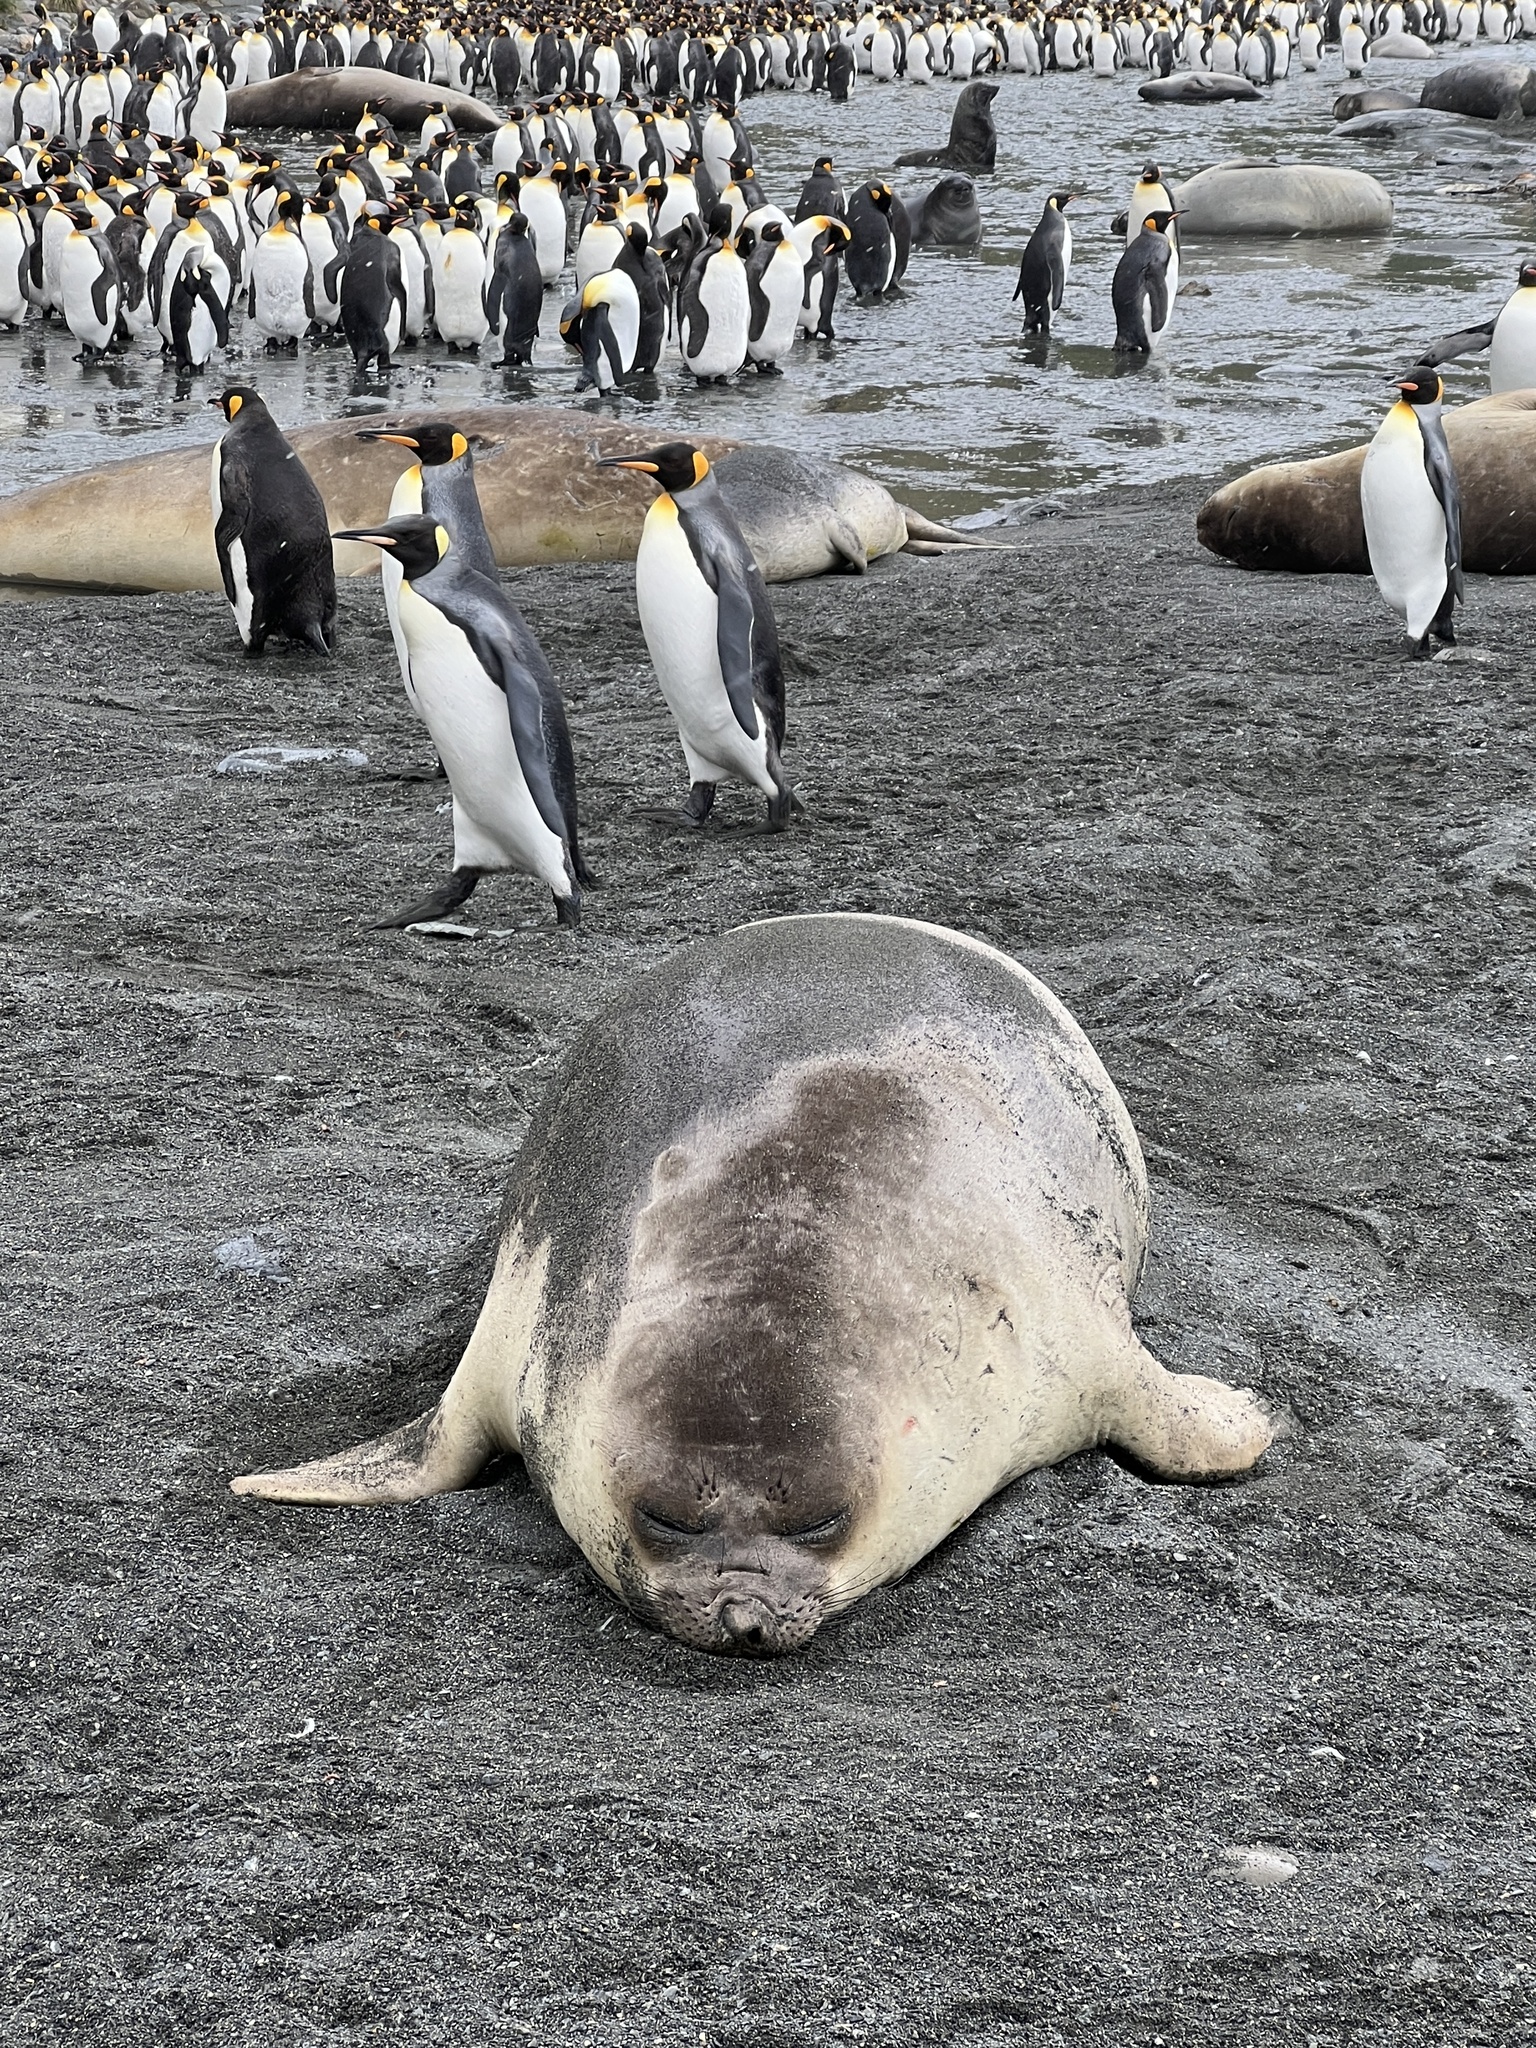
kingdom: Animalia
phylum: Chordata
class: Mammalia
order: Carnivora
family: Phocidae
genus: Mirounga
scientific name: Mirounga leonina
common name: Southern elephant seal
